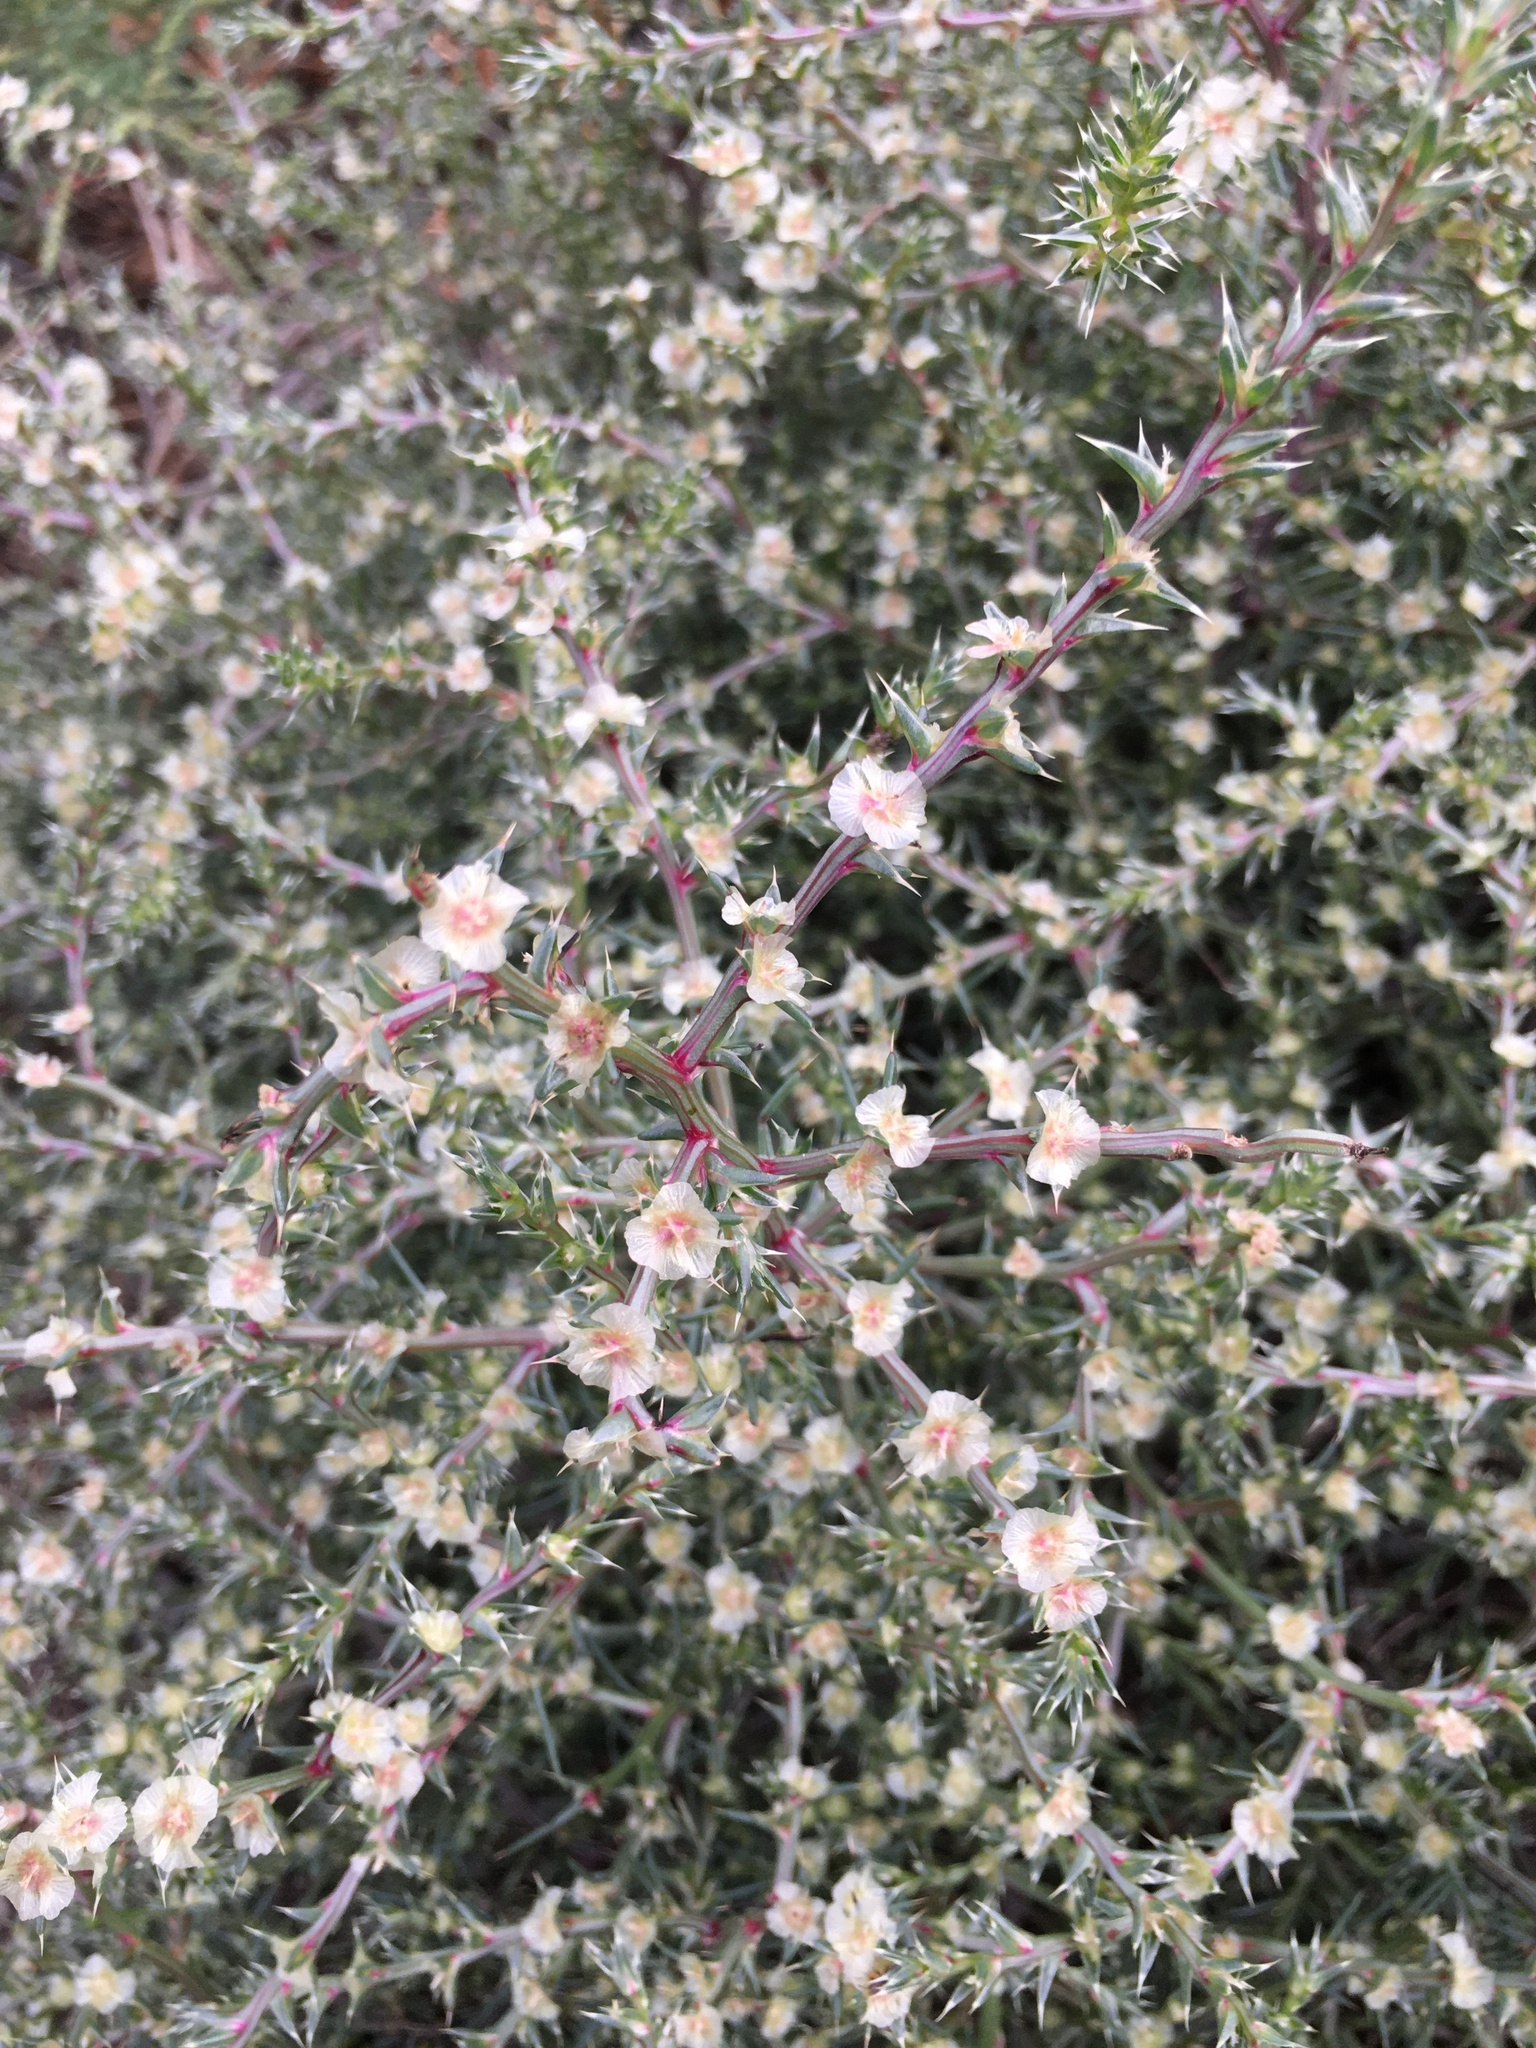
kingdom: Plantae
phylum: Tracheophyta
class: Magnoliopsida
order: Caryophyllales
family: Amaranthaceae
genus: Salsola
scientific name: Salsola tragus
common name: Prickly russian thistle
